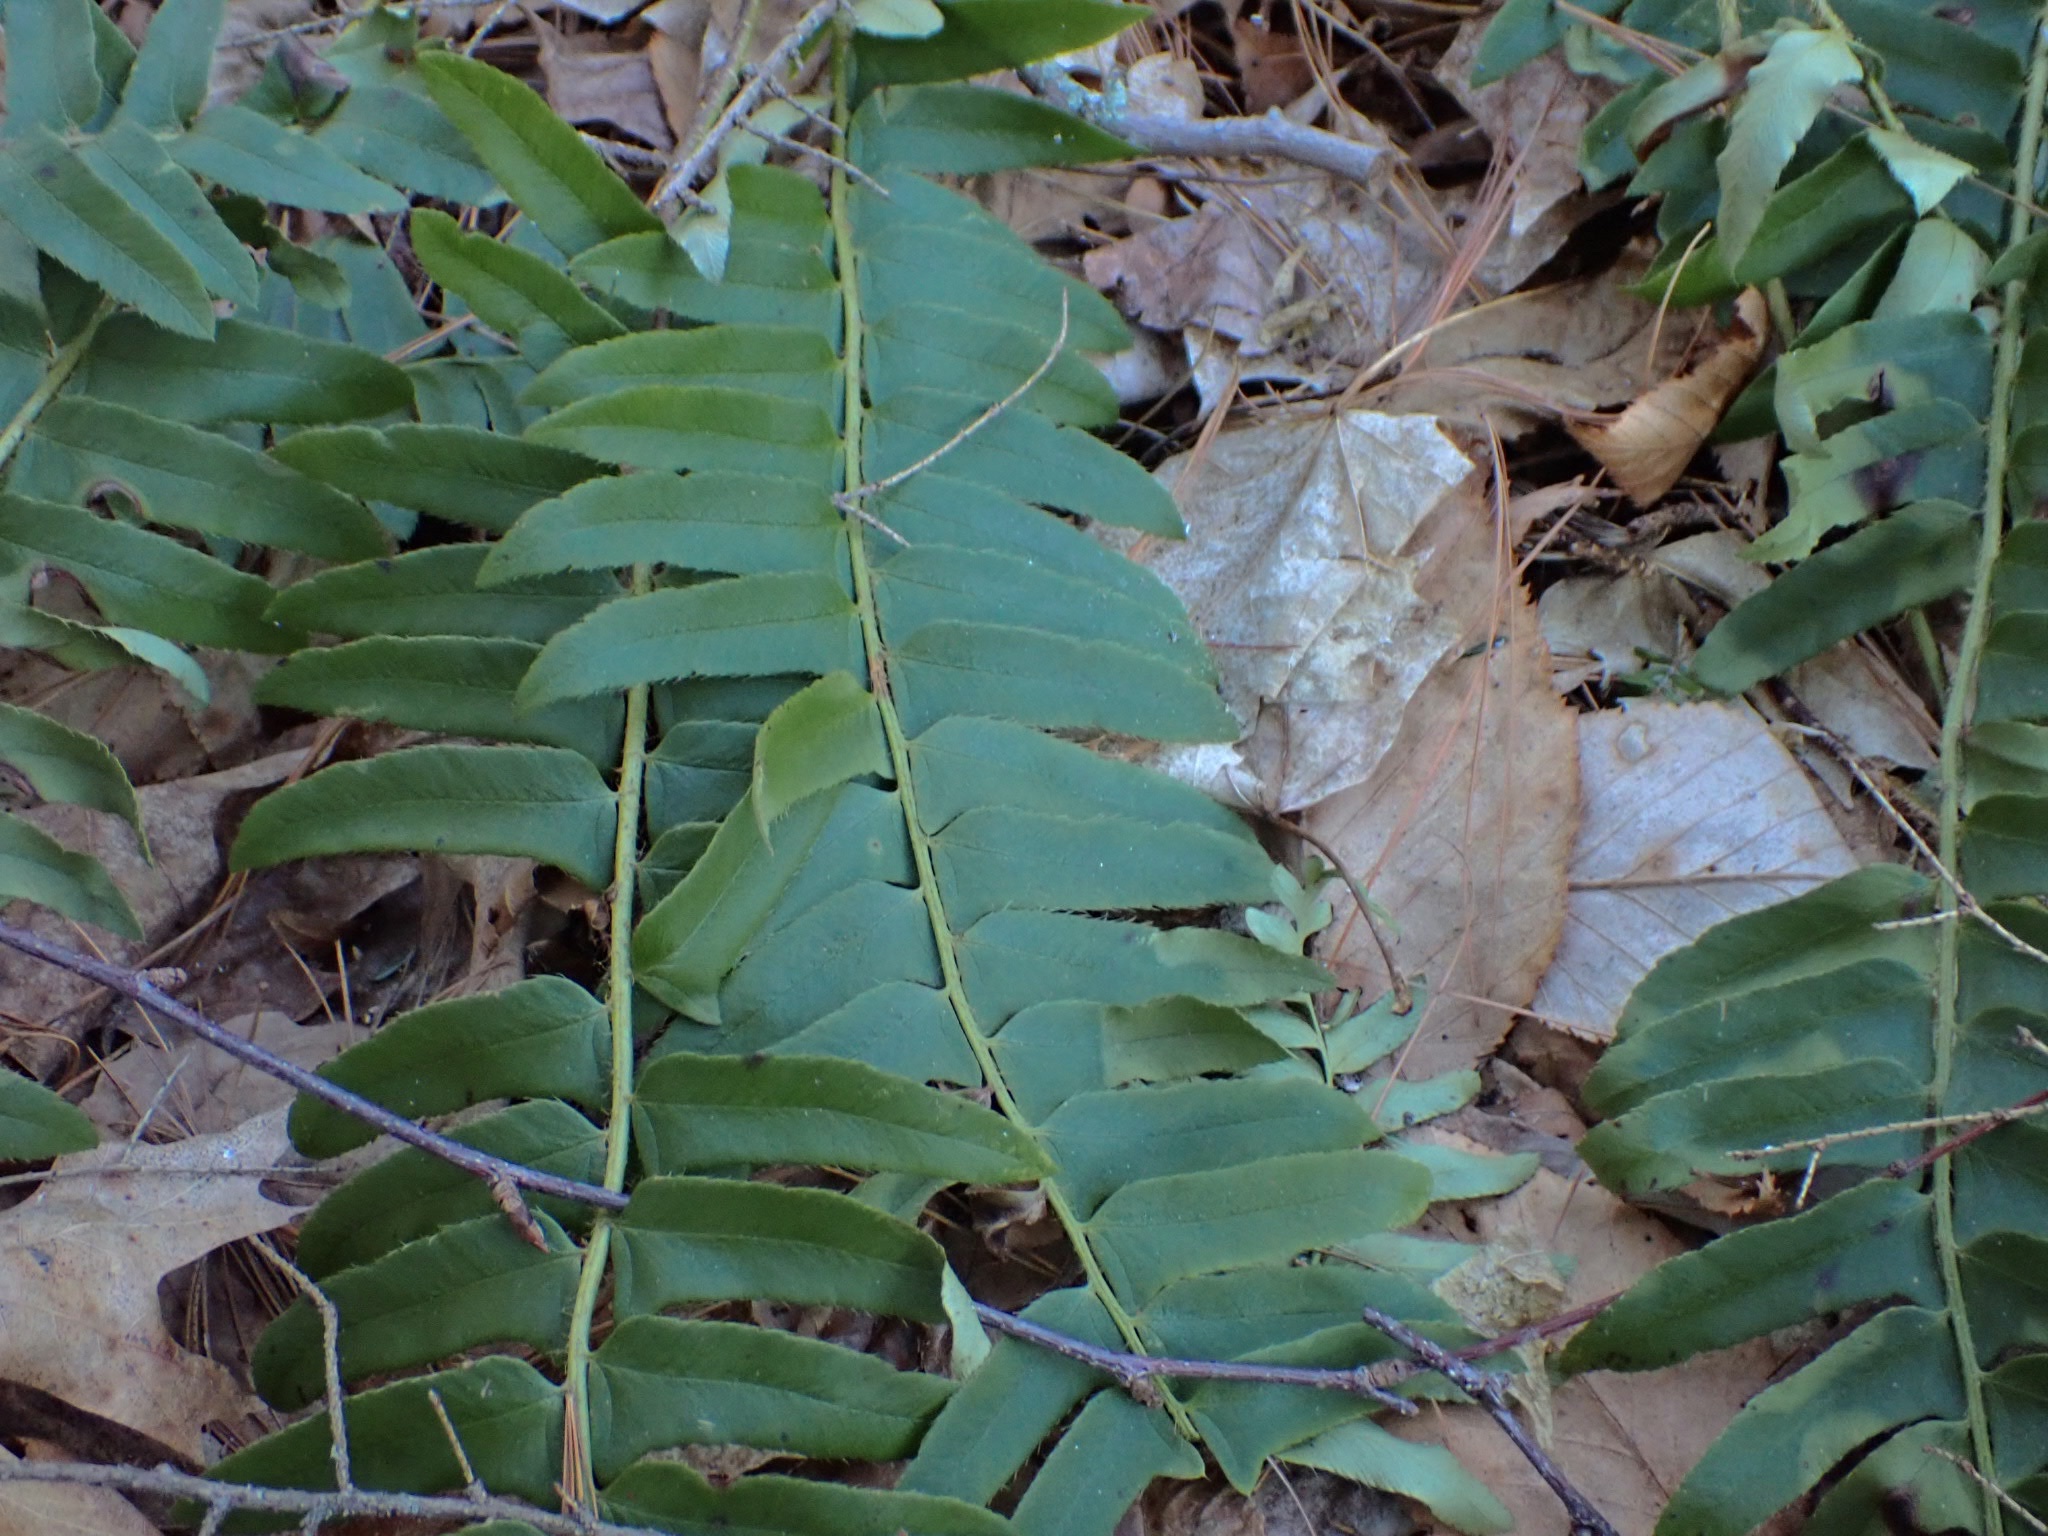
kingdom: Plantae
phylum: Tracheophyta
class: Polypodiopsida
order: Polypodiales
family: Dryopteridaceae
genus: Polystichum
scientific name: Polystichum acrostichoides
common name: Christmas fern
